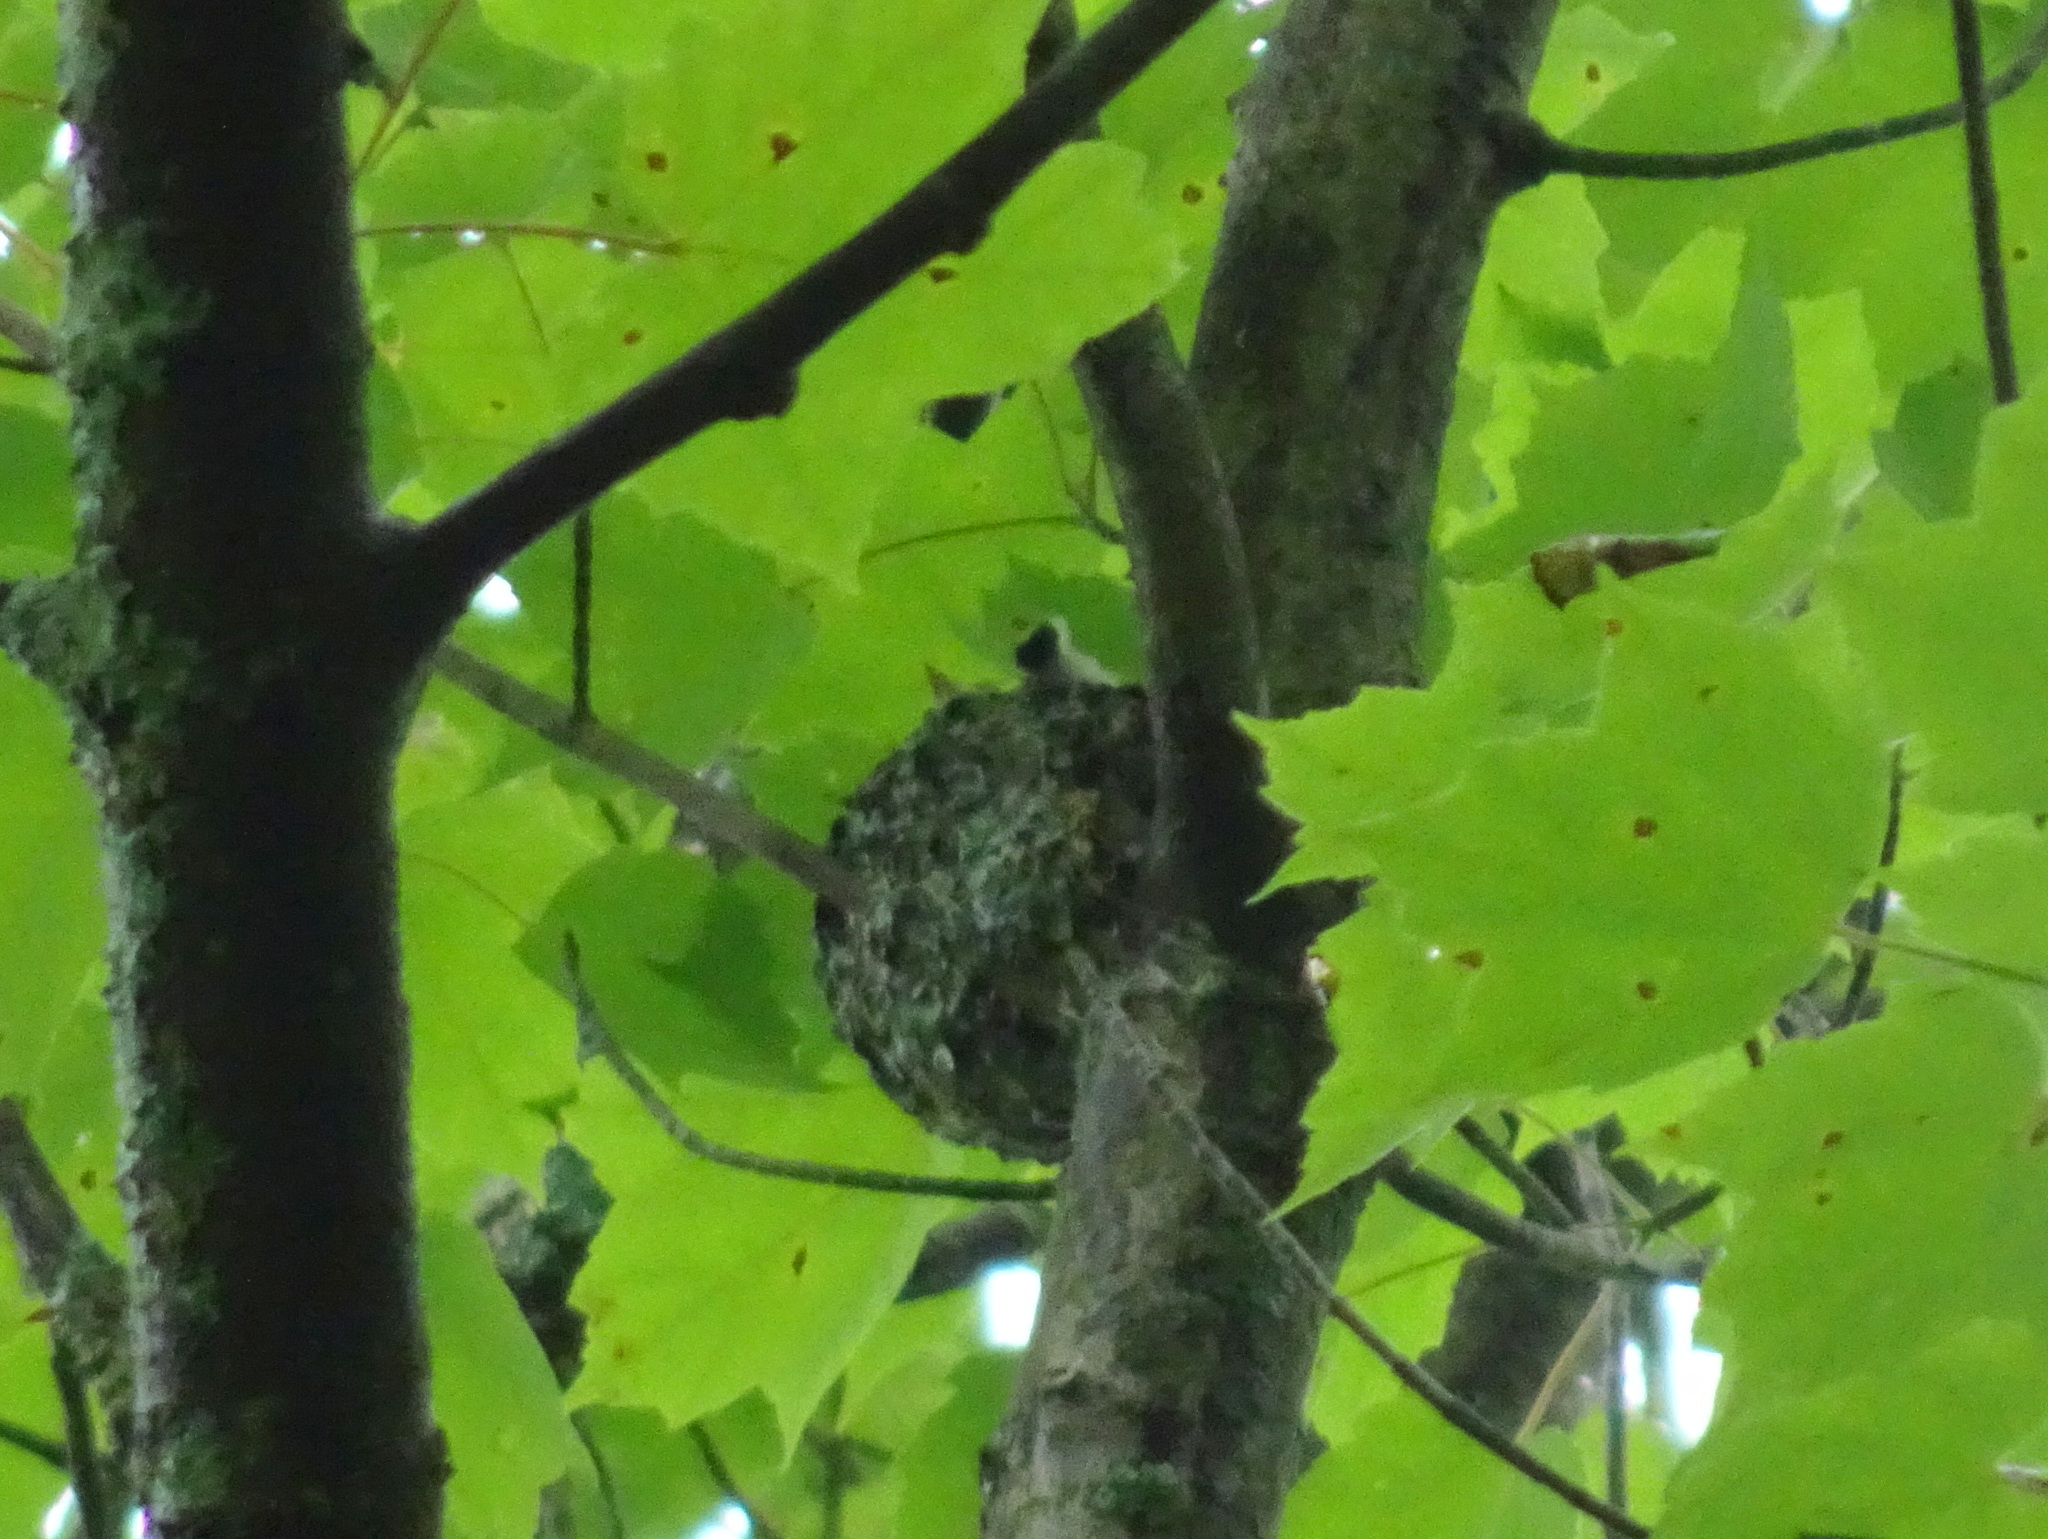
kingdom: Animalia
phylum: Chordata
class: Aves
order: Passeriformes
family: Polioptilidae
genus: Polioptila
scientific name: Polioptila caerulea
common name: Blue-gray gnatcatcher
